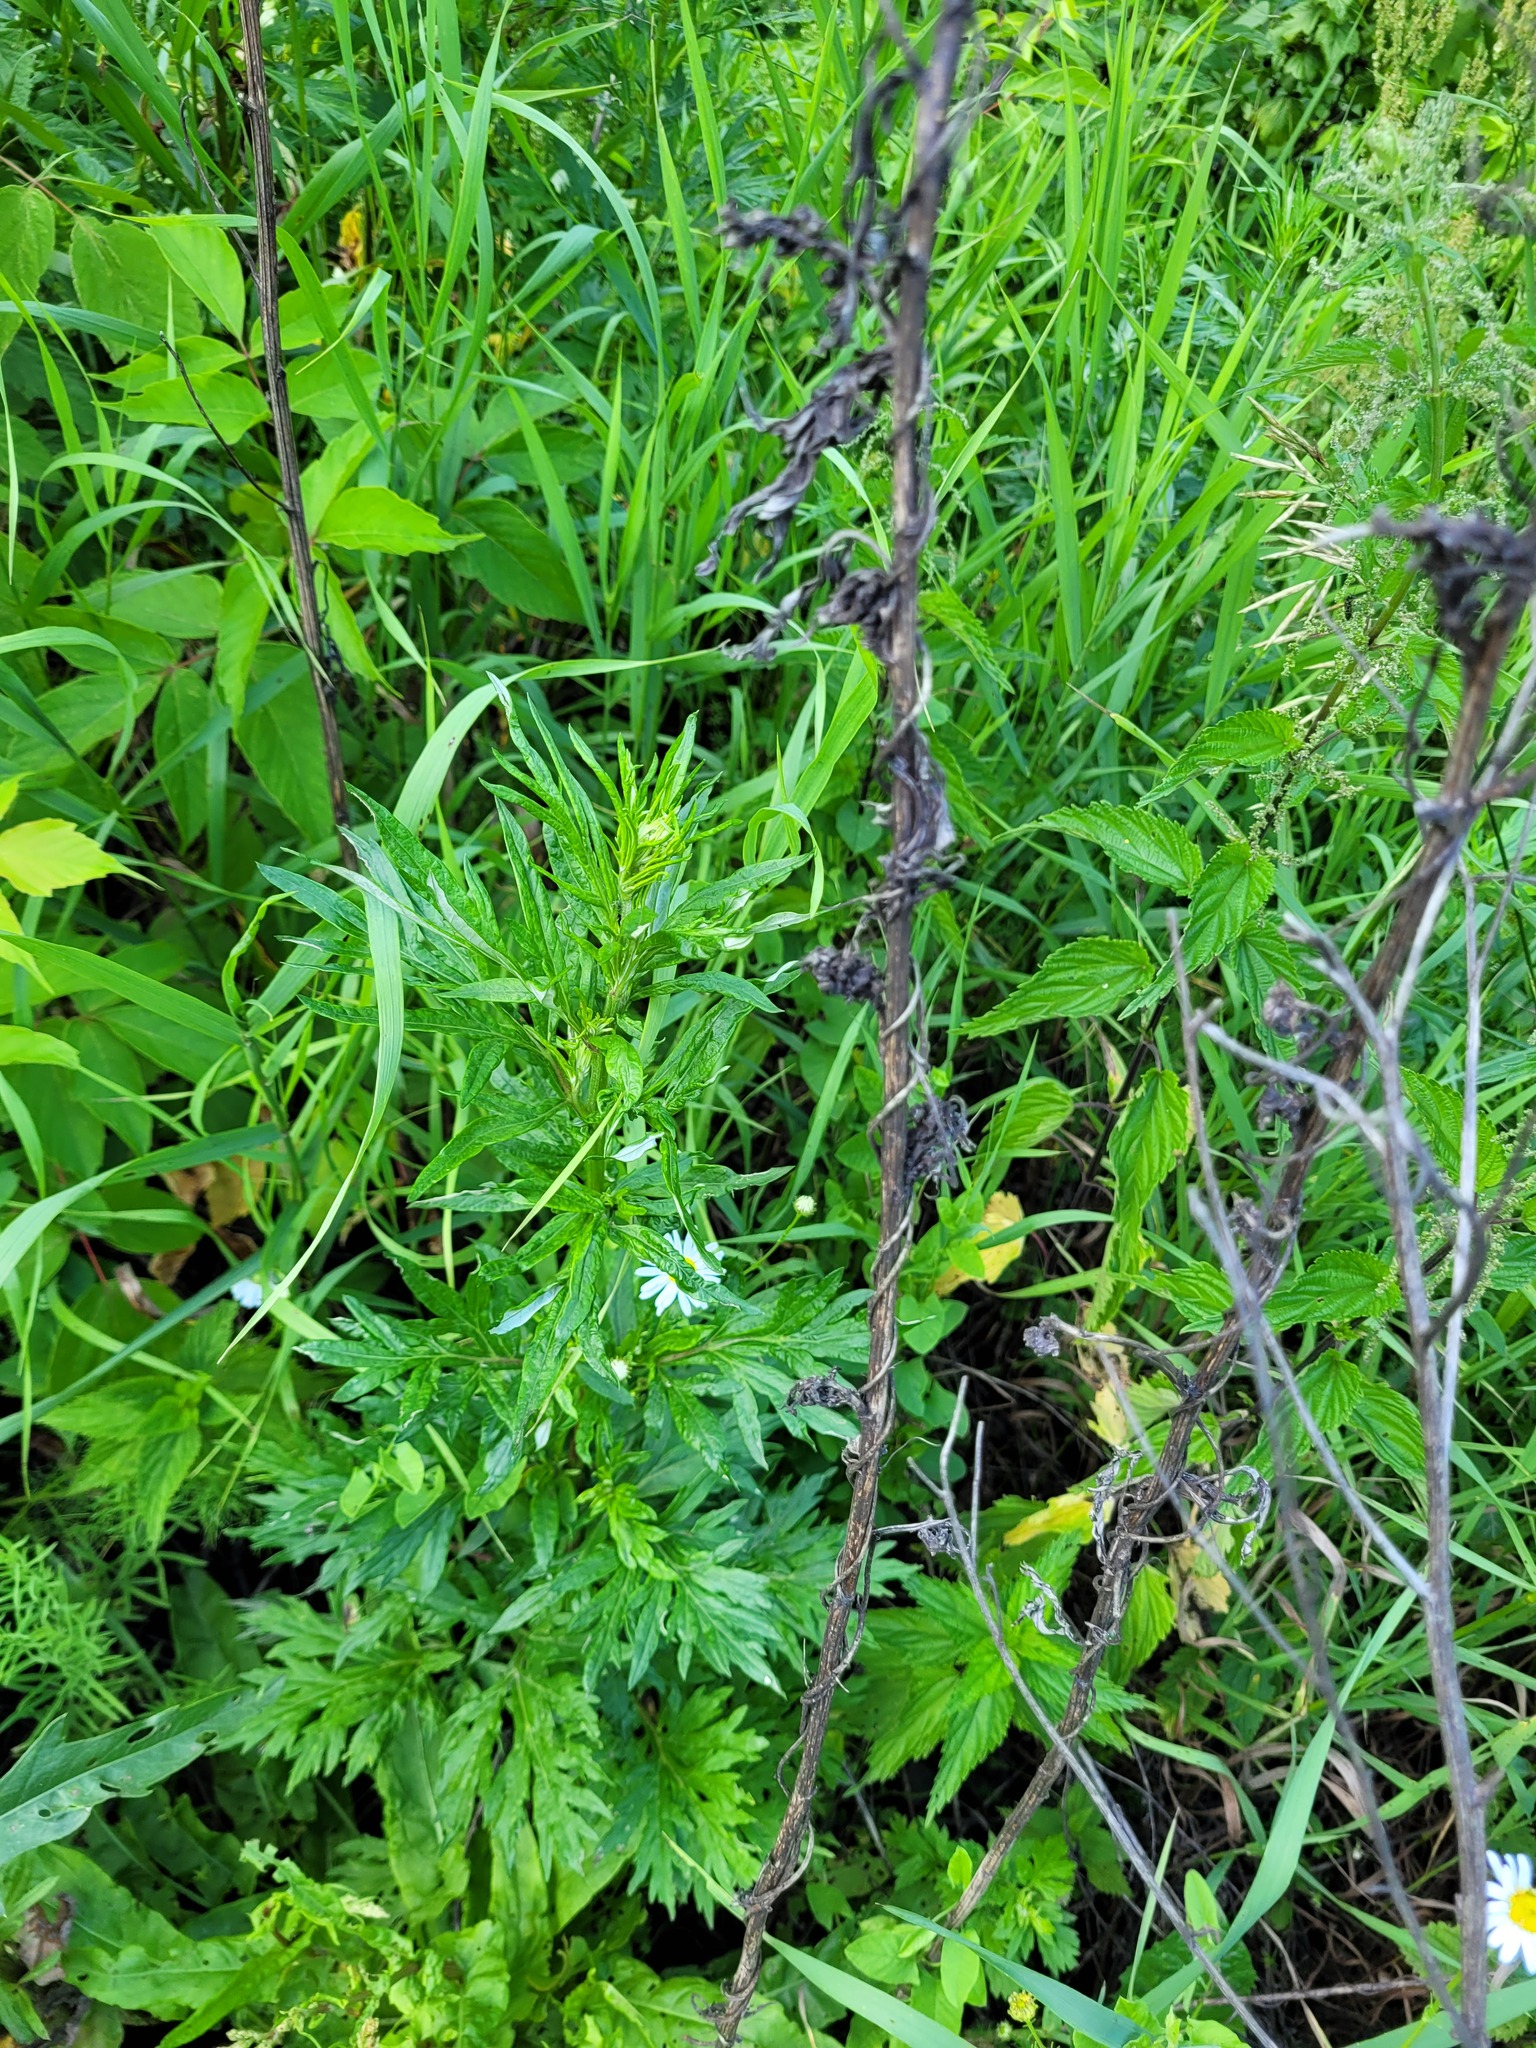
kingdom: Plantae
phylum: Tracheophyta
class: Magnoliopsida
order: Asterales
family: Asteraceae
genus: Artemisia
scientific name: Artemisia vulgaris
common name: Mugwort
